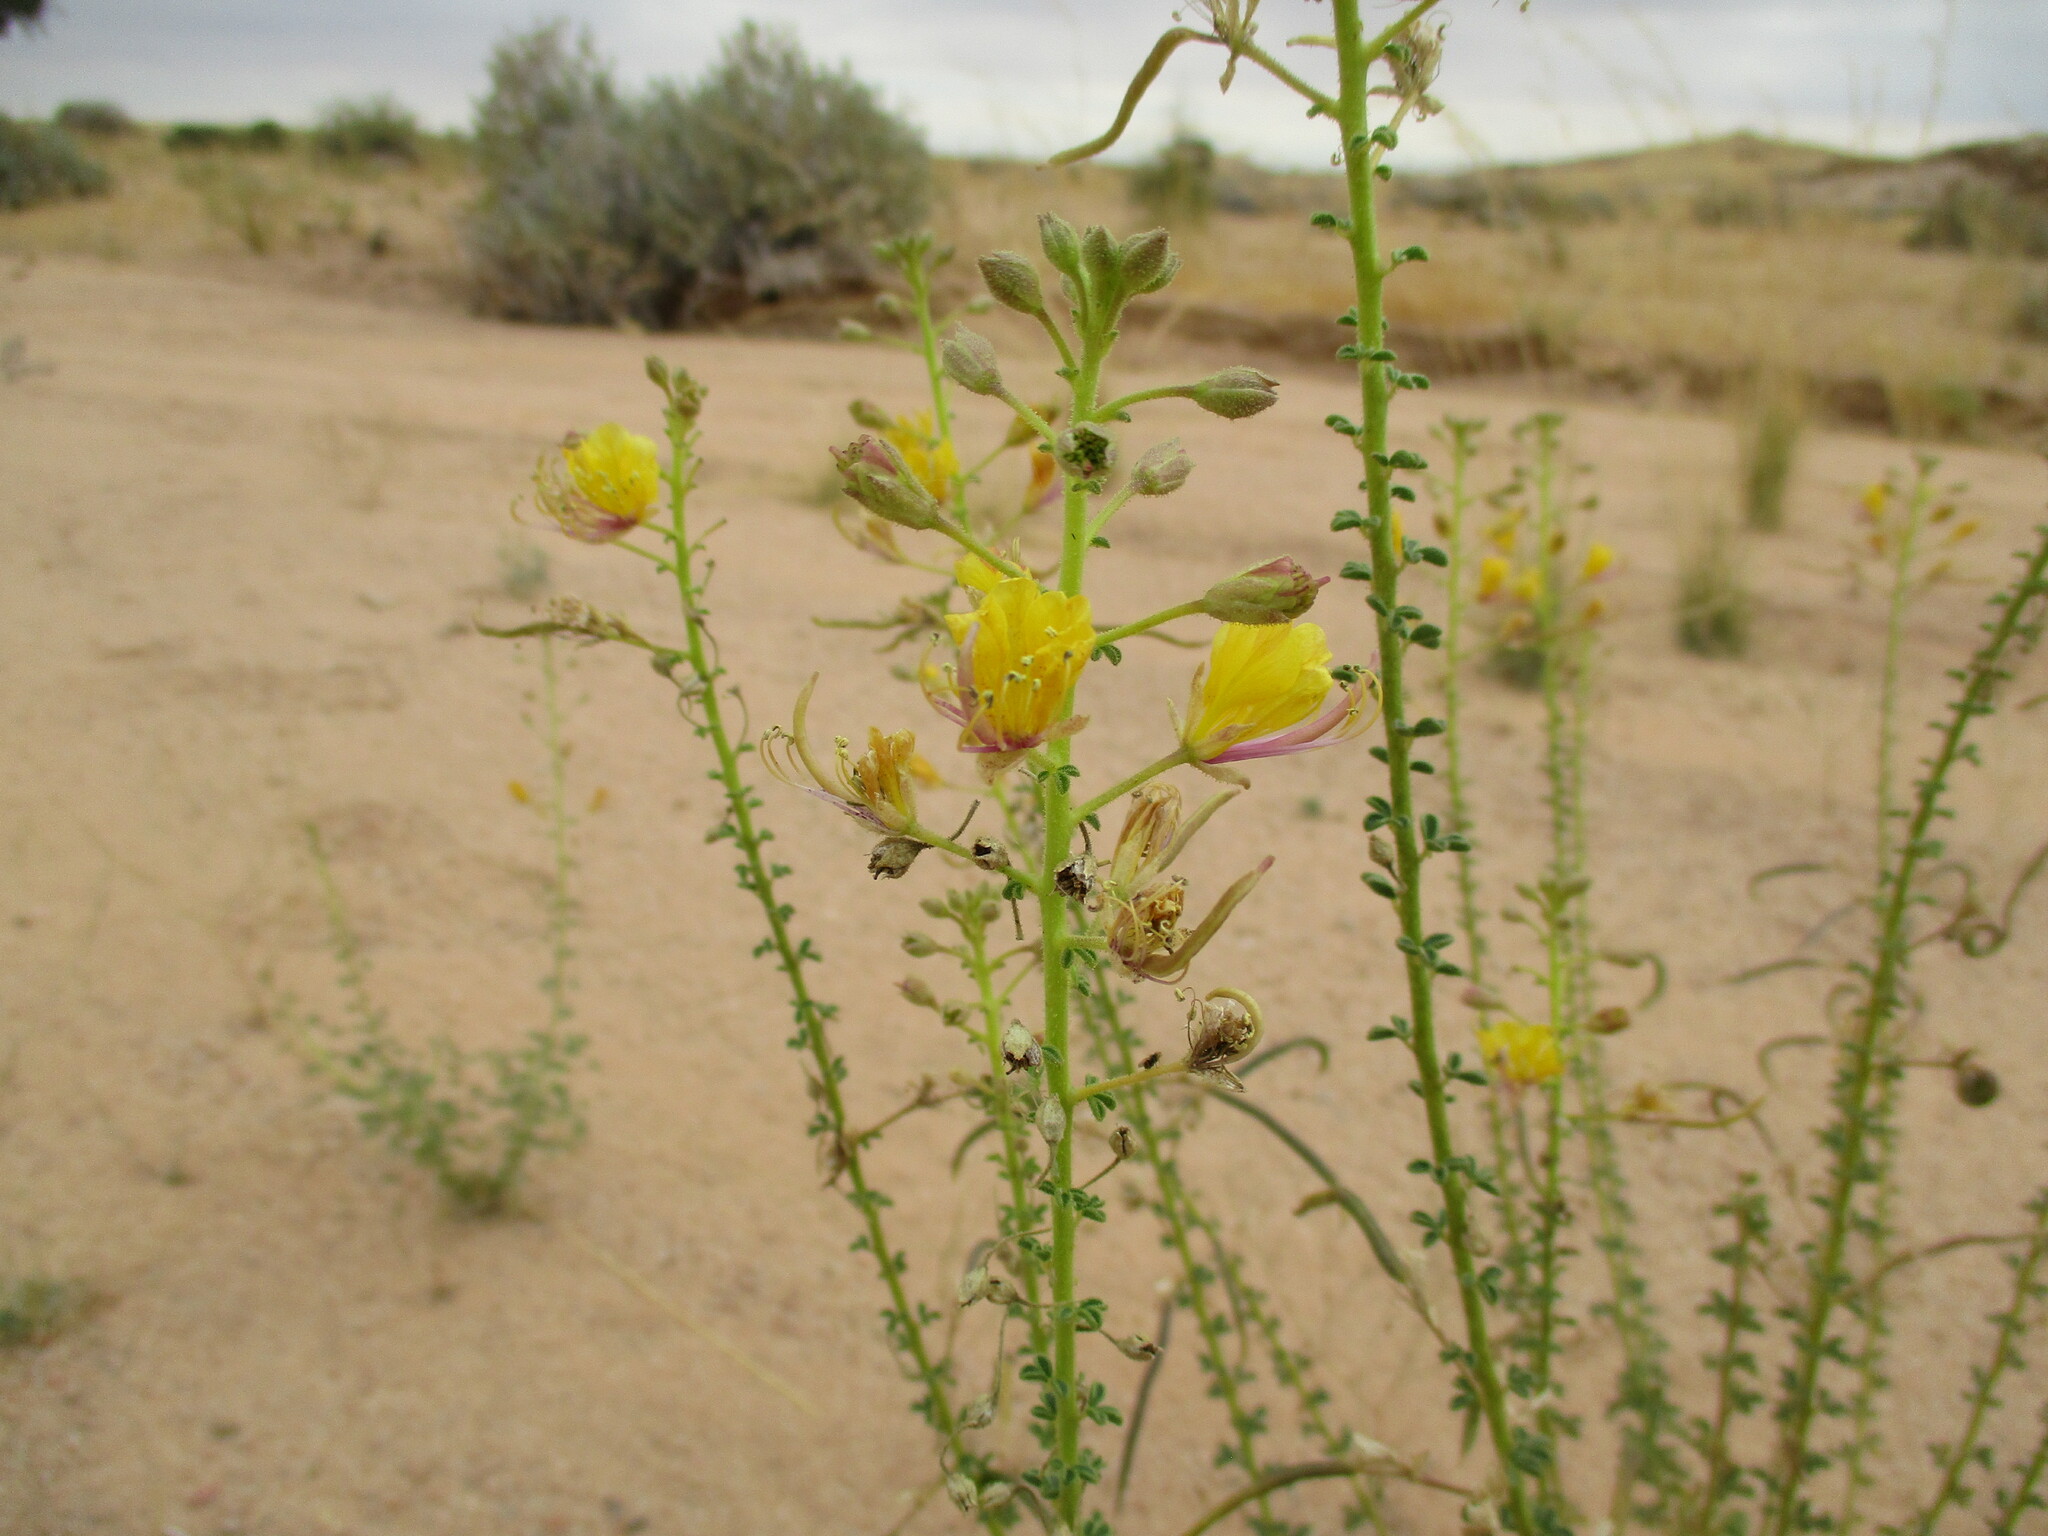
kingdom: Plantae
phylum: Tracheophyta
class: Magnoliopsida
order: Brassicales
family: Cleomaceae
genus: Cleome
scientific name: Cleome foliosa
